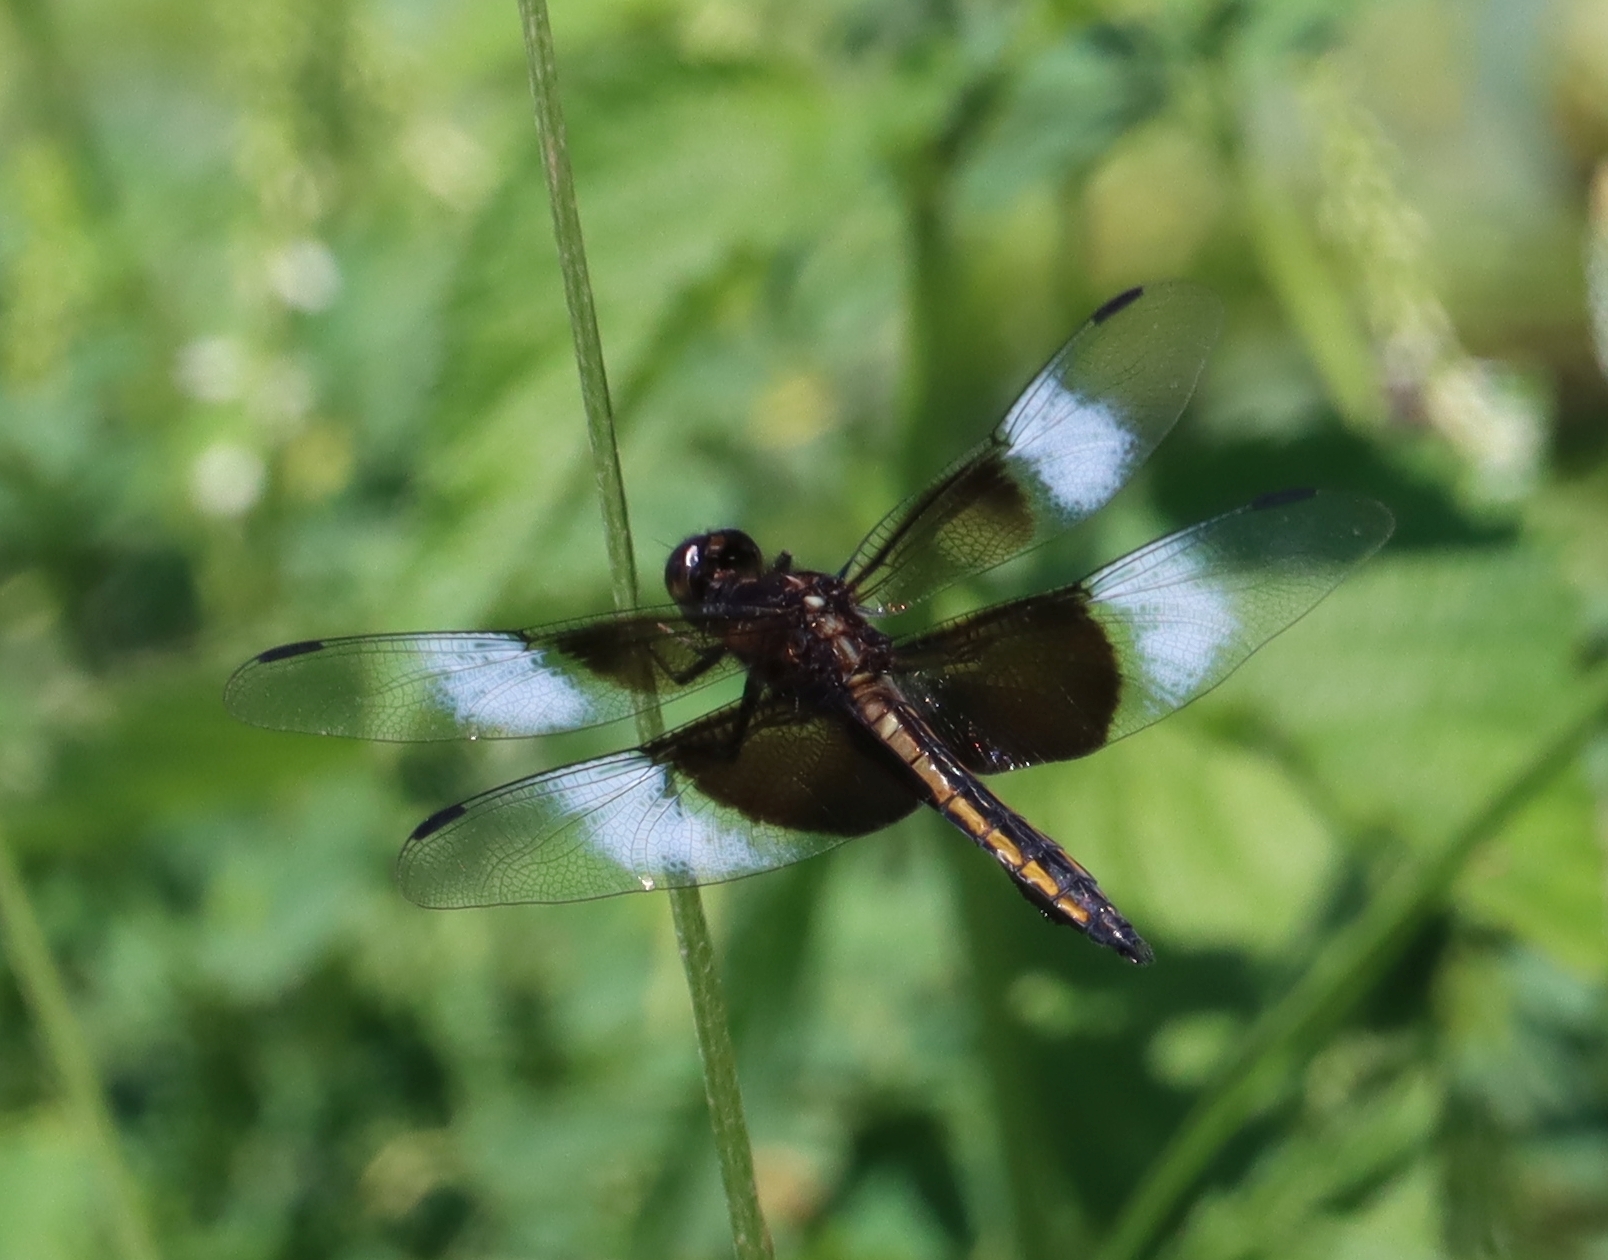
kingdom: Animalia
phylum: Arthropoda
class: Insecta
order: Odonata
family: Libellulidae
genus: Libellula
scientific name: Libellula luctuosa
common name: Widow skimmer
